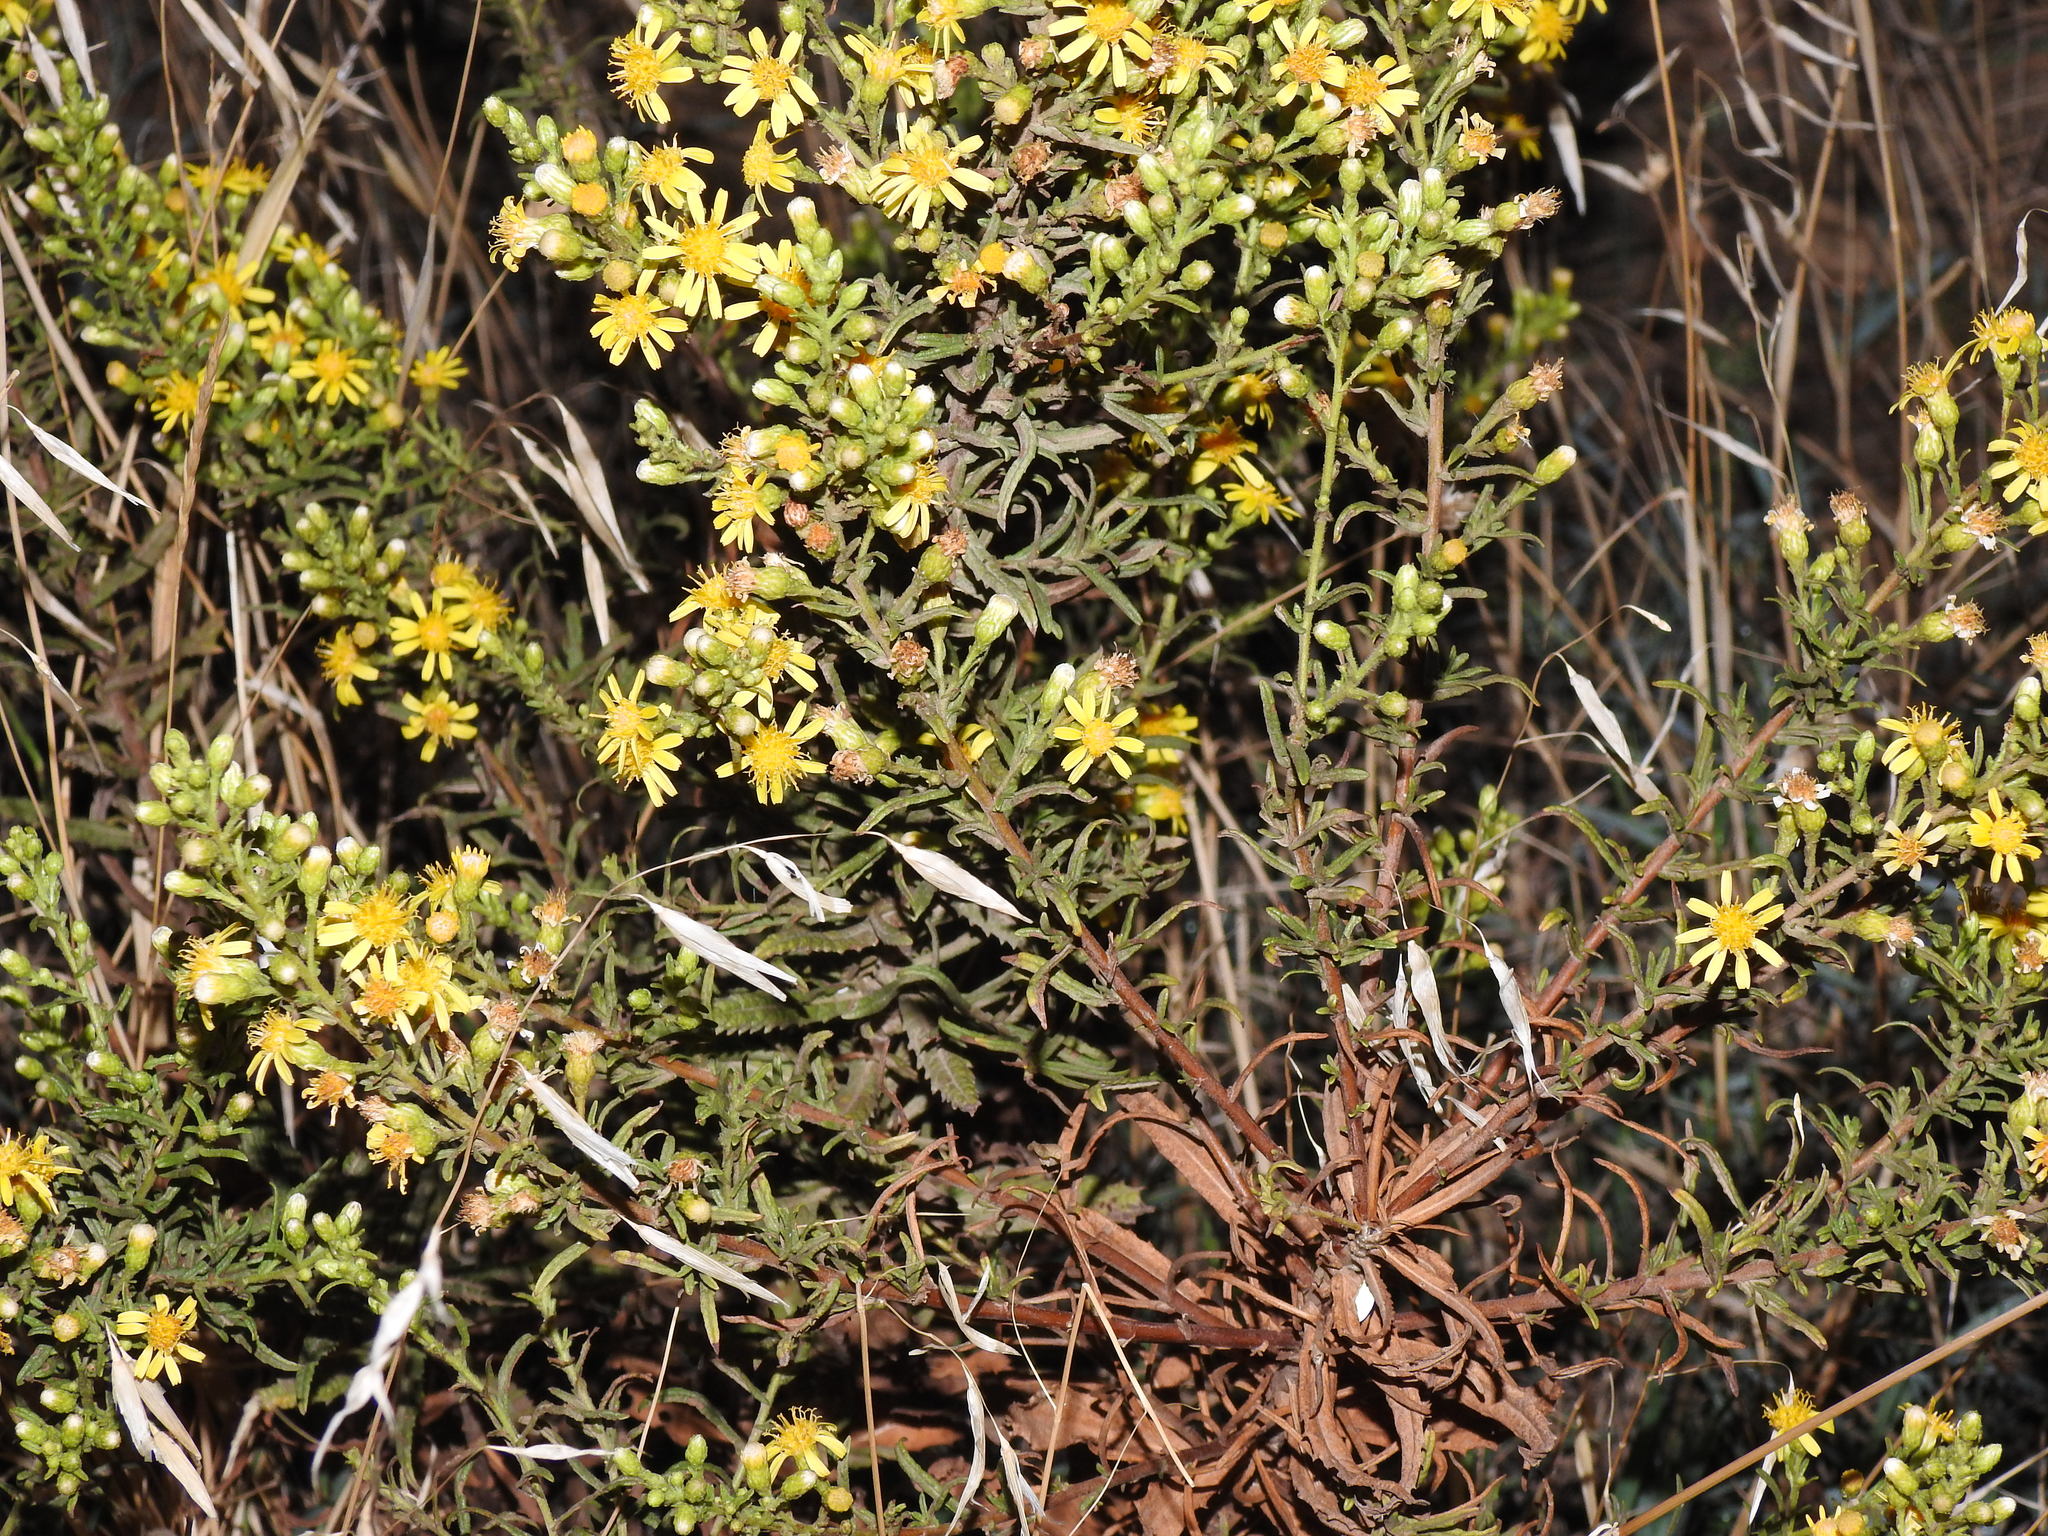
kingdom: Plantae
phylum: Tracheophyta
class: Magnoliopsida
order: Asterales
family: Asteraceae
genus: Dittrichia
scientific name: Dittrichia viscosa
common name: Woody fleabane
